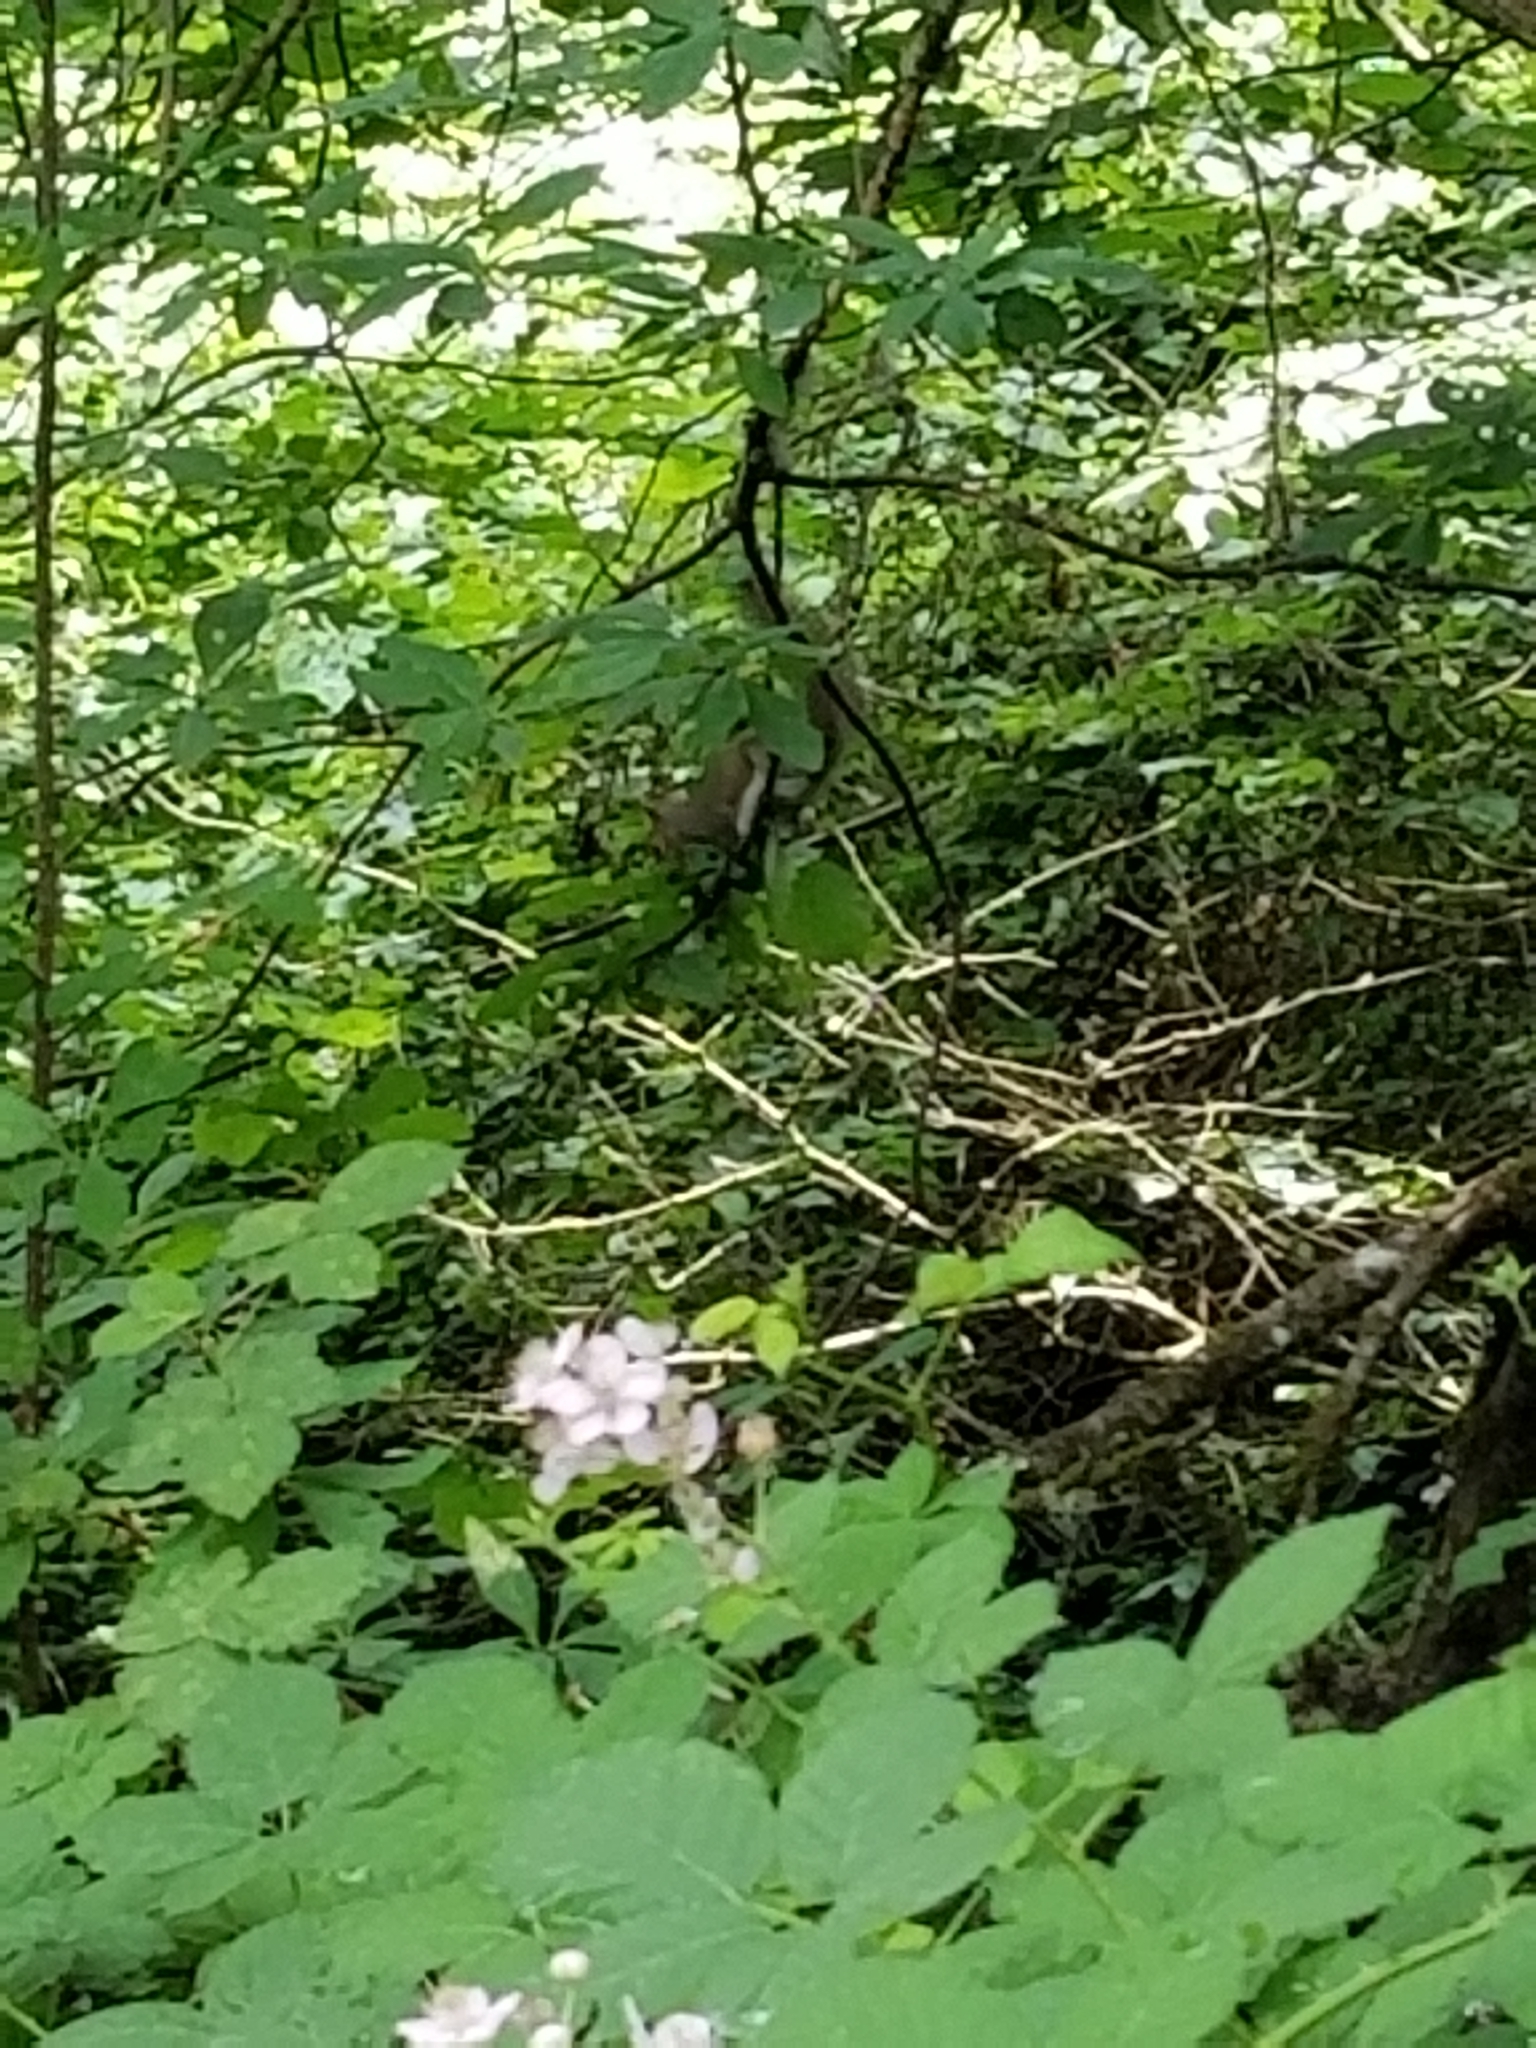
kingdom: Animalia
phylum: Chordata
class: Mammalia
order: Rodentia
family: Sciuridae
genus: Sciurus
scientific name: Sciurus carolinensis
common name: Eastern gray squirrel
